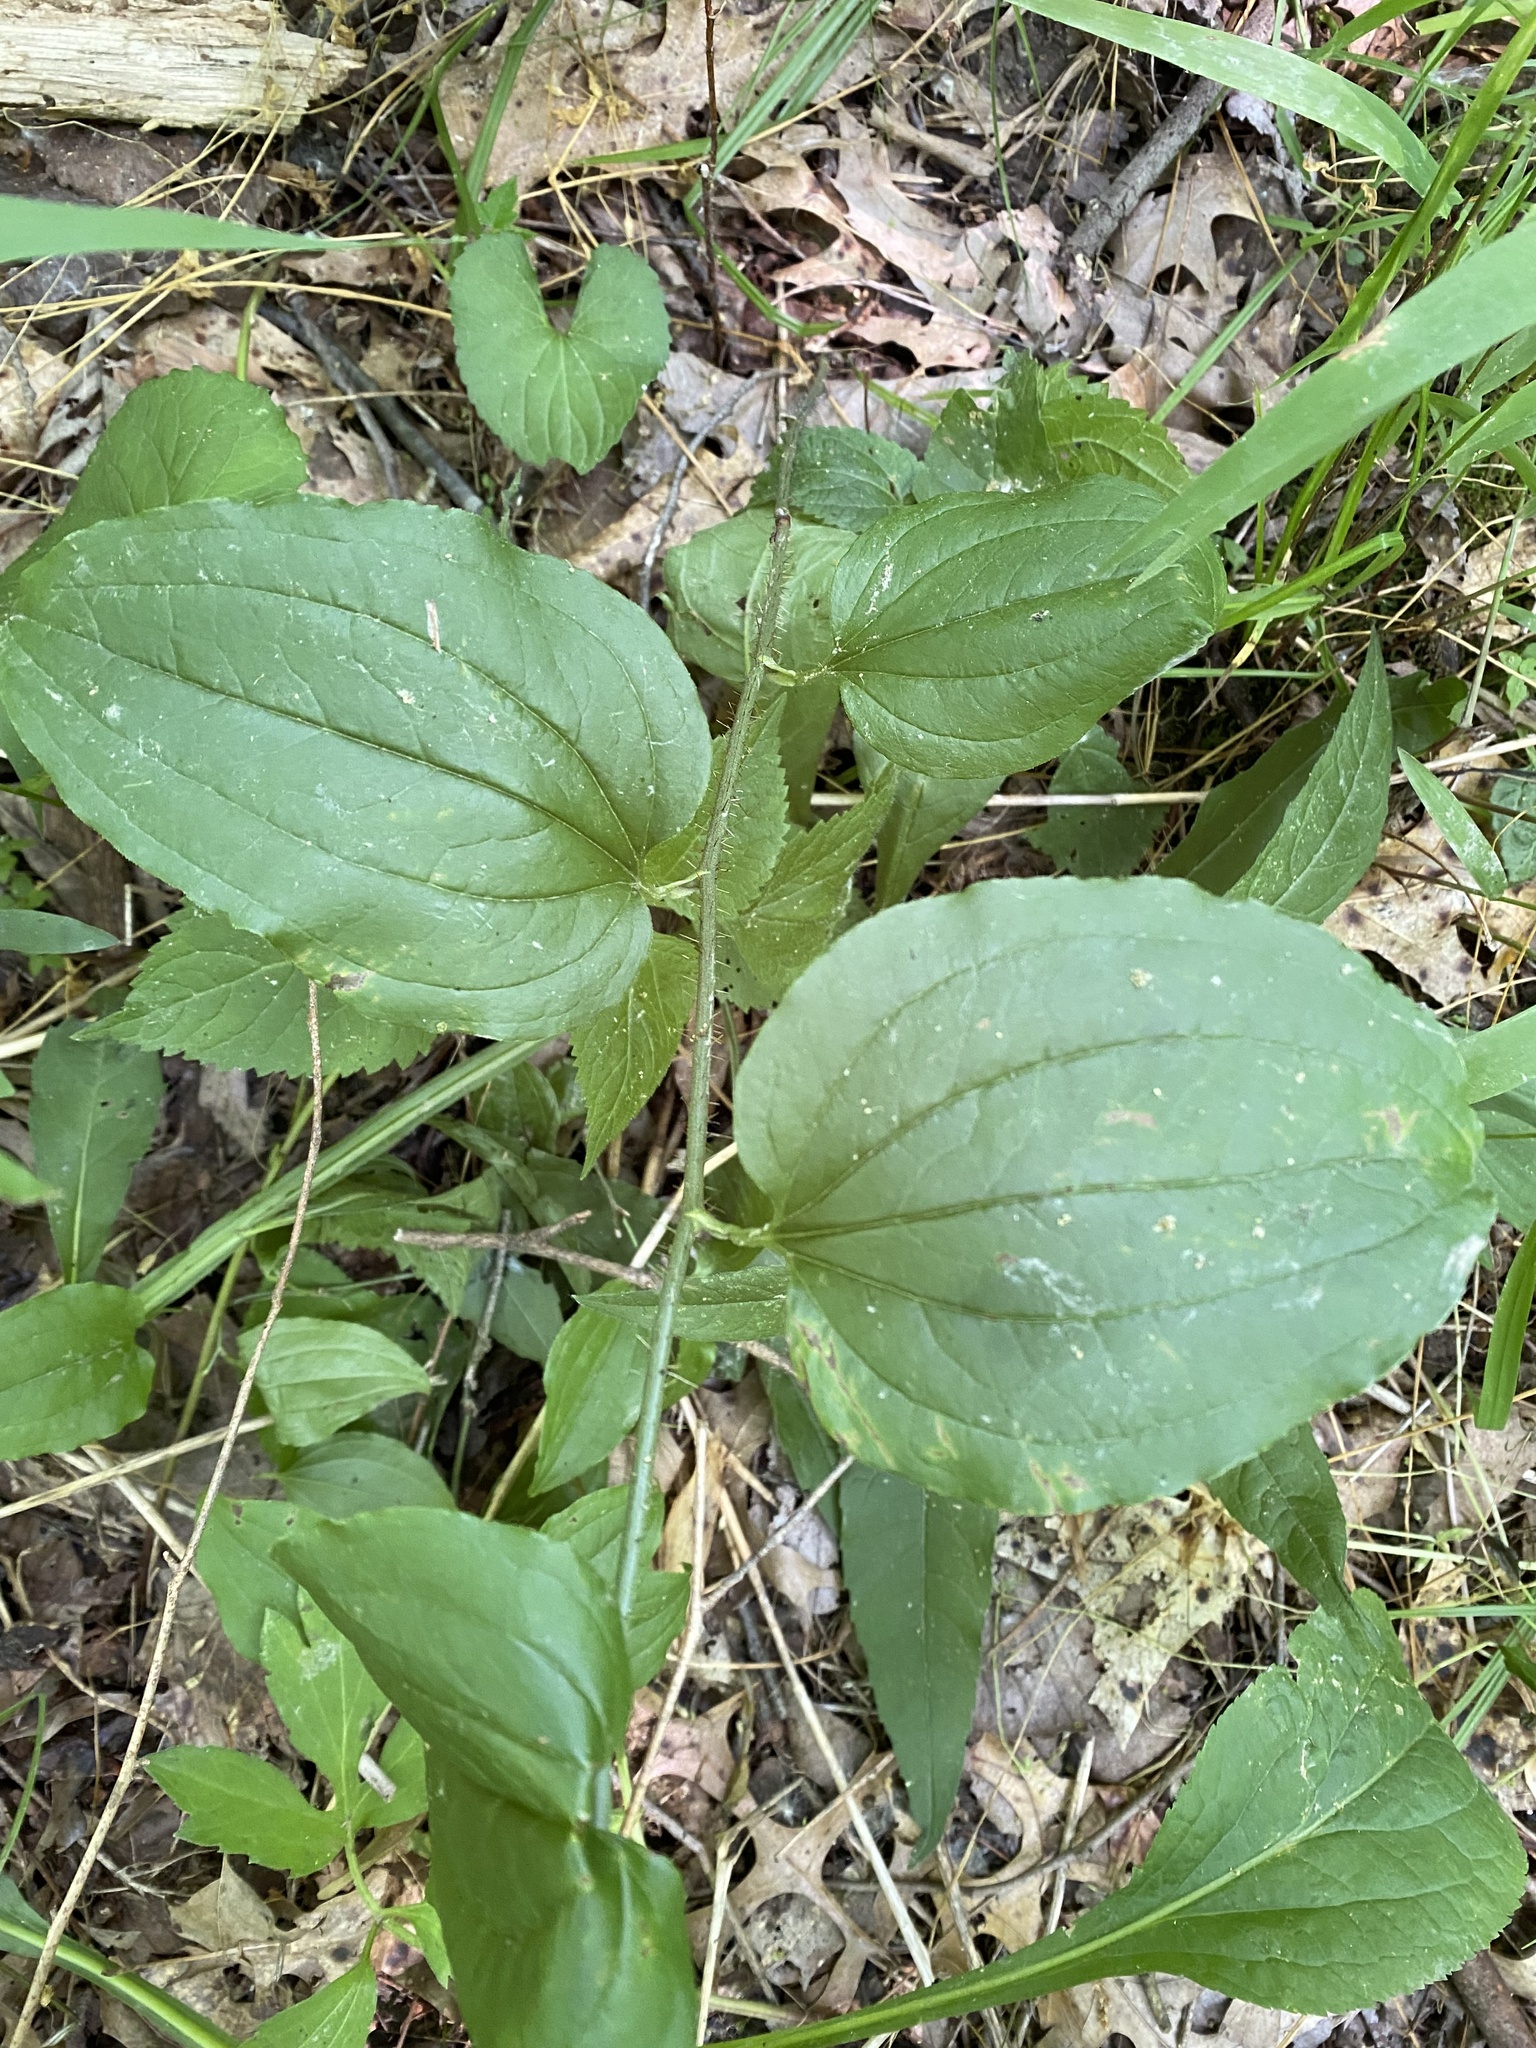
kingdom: Plantae
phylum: Tracheophyta
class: Liliopsida
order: Liliales
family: Smilacaceae
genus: Smilax
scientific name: Smilax tamnoides
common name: Hellfetter
